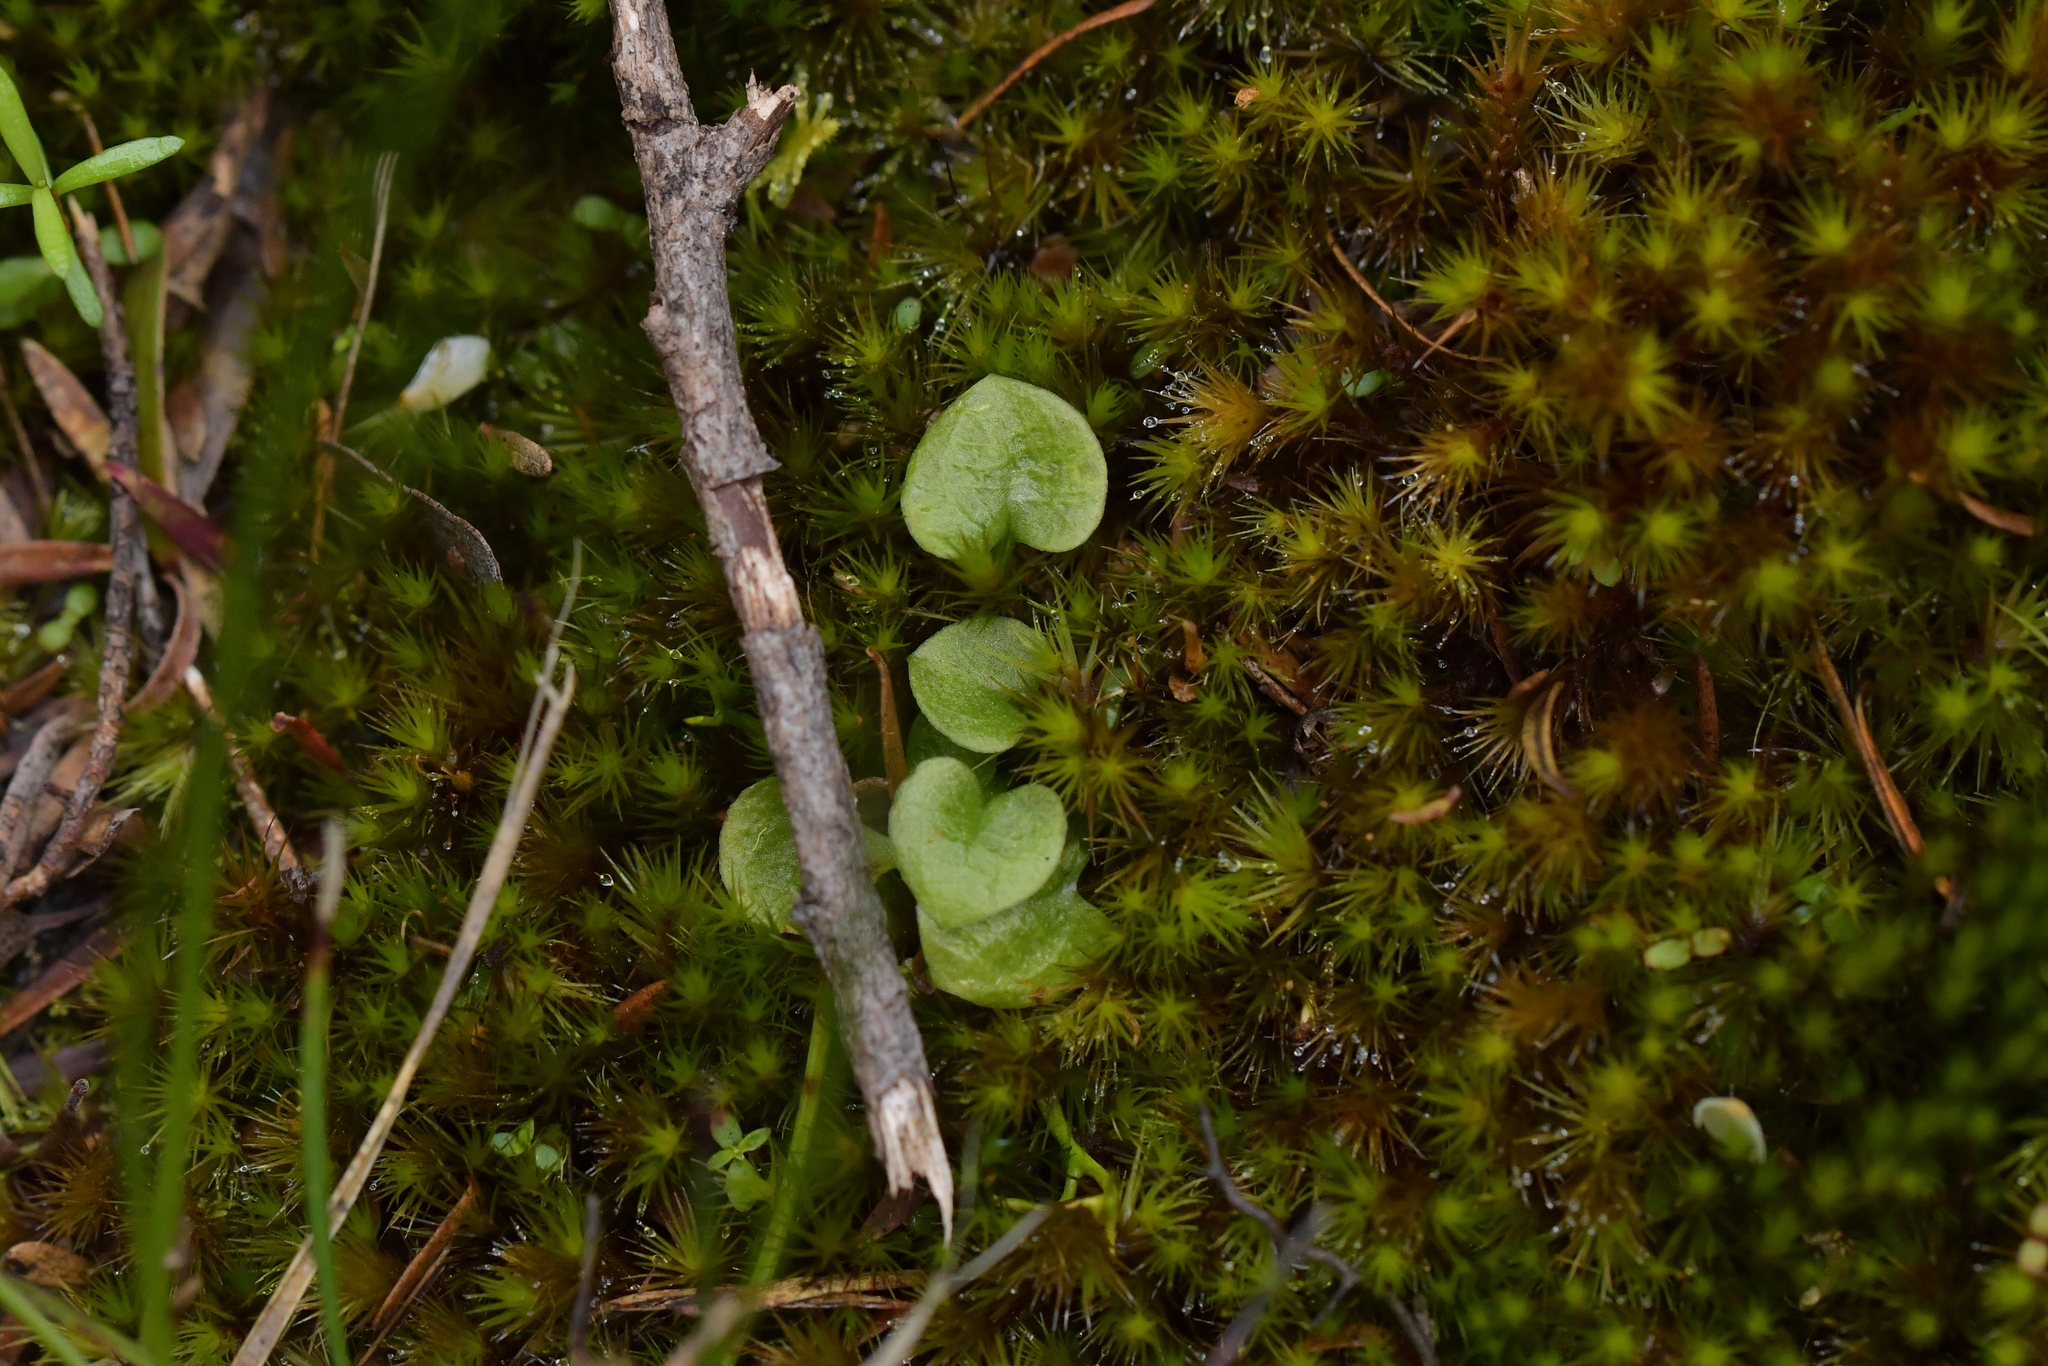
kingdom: Plantae
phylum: Tracheophyta
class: Liliopsida
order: Asparagales
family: Orchidaceae
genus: Pterostylis
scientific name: Pterostylis trullifolia
